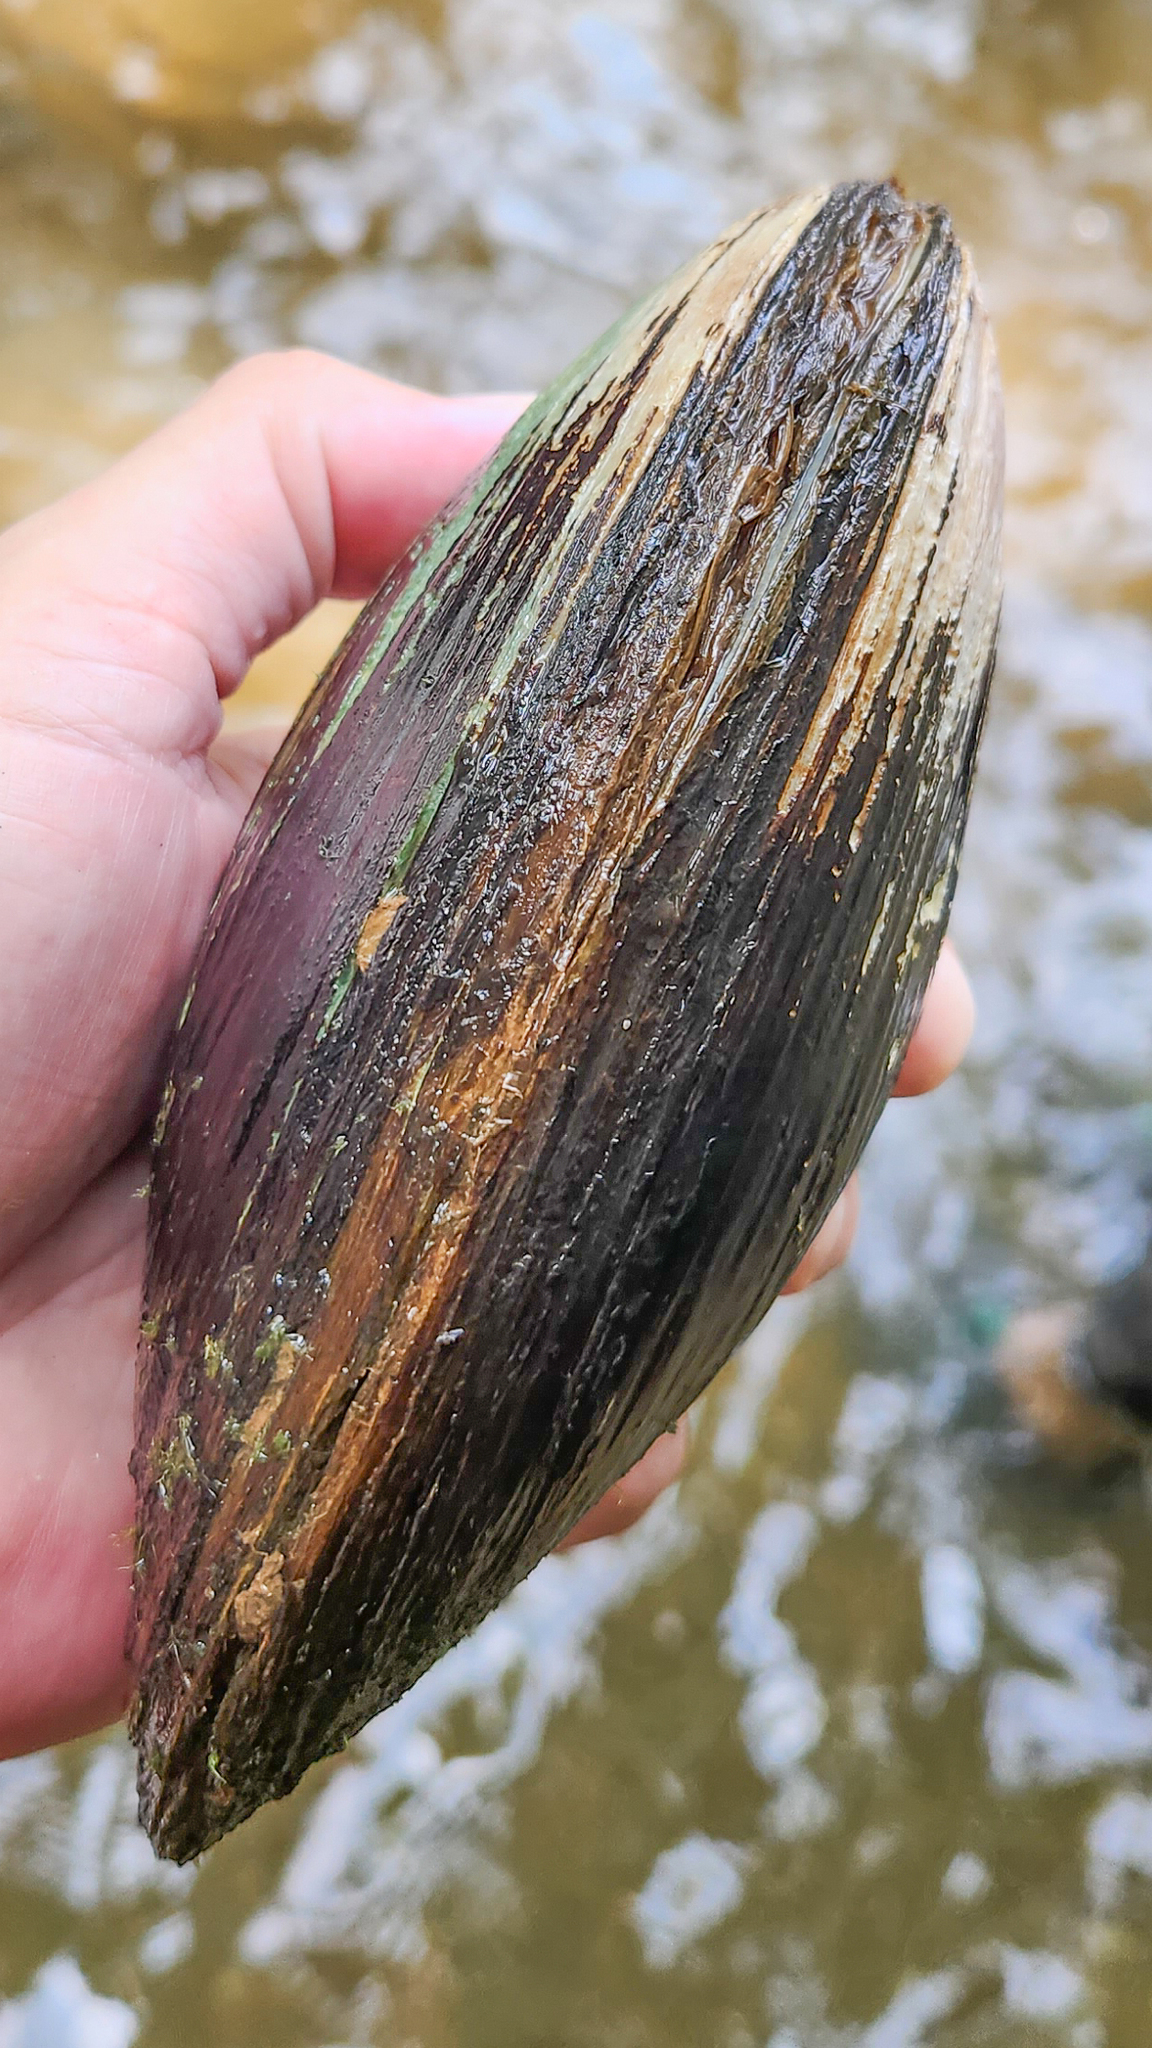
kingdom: Animalia
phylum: Mollusca
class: Bivalvia
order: Unionida
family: Unionidae
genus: Potamilus
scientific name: Potamilus purpuratus
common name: Bleufer
